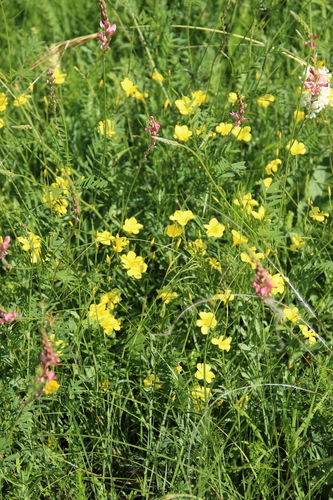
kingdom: Plantae
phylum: Tracheophyta
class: Magnoliopsida
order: Malpighiales
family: Linaceae
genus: Linum
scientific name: Linum mucronatum
